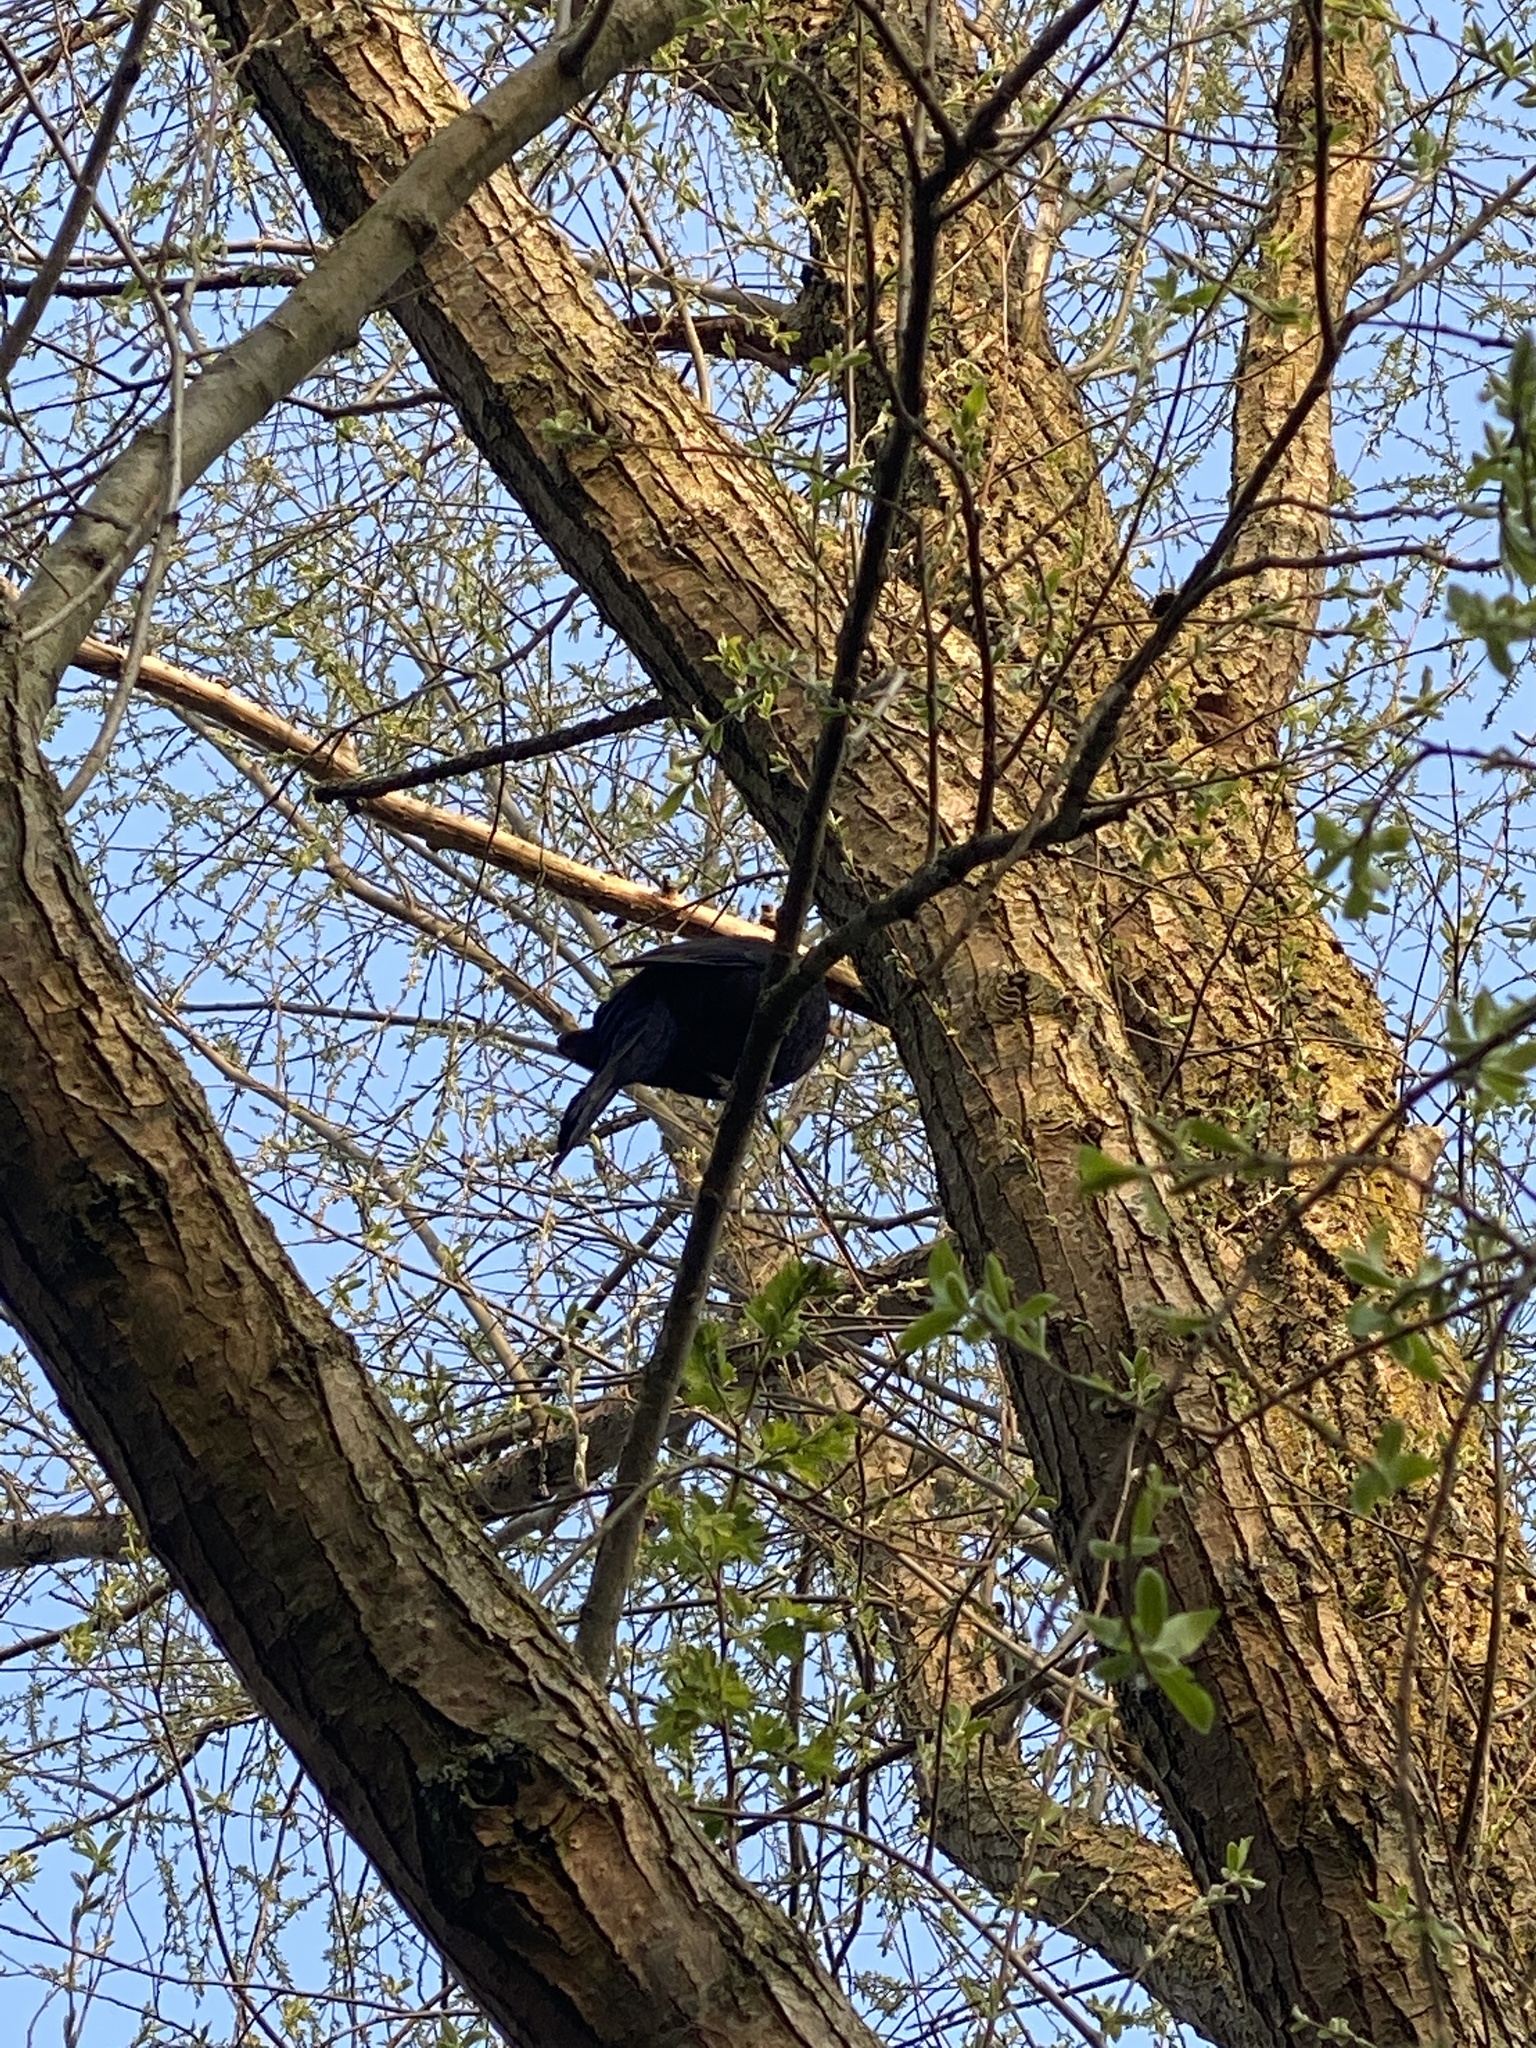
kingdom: Animalia
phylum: Chordata
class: Aves
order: Passeriformes
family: Turdidae
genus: Turdus
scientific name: Turdus merula
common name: Common blackbird
